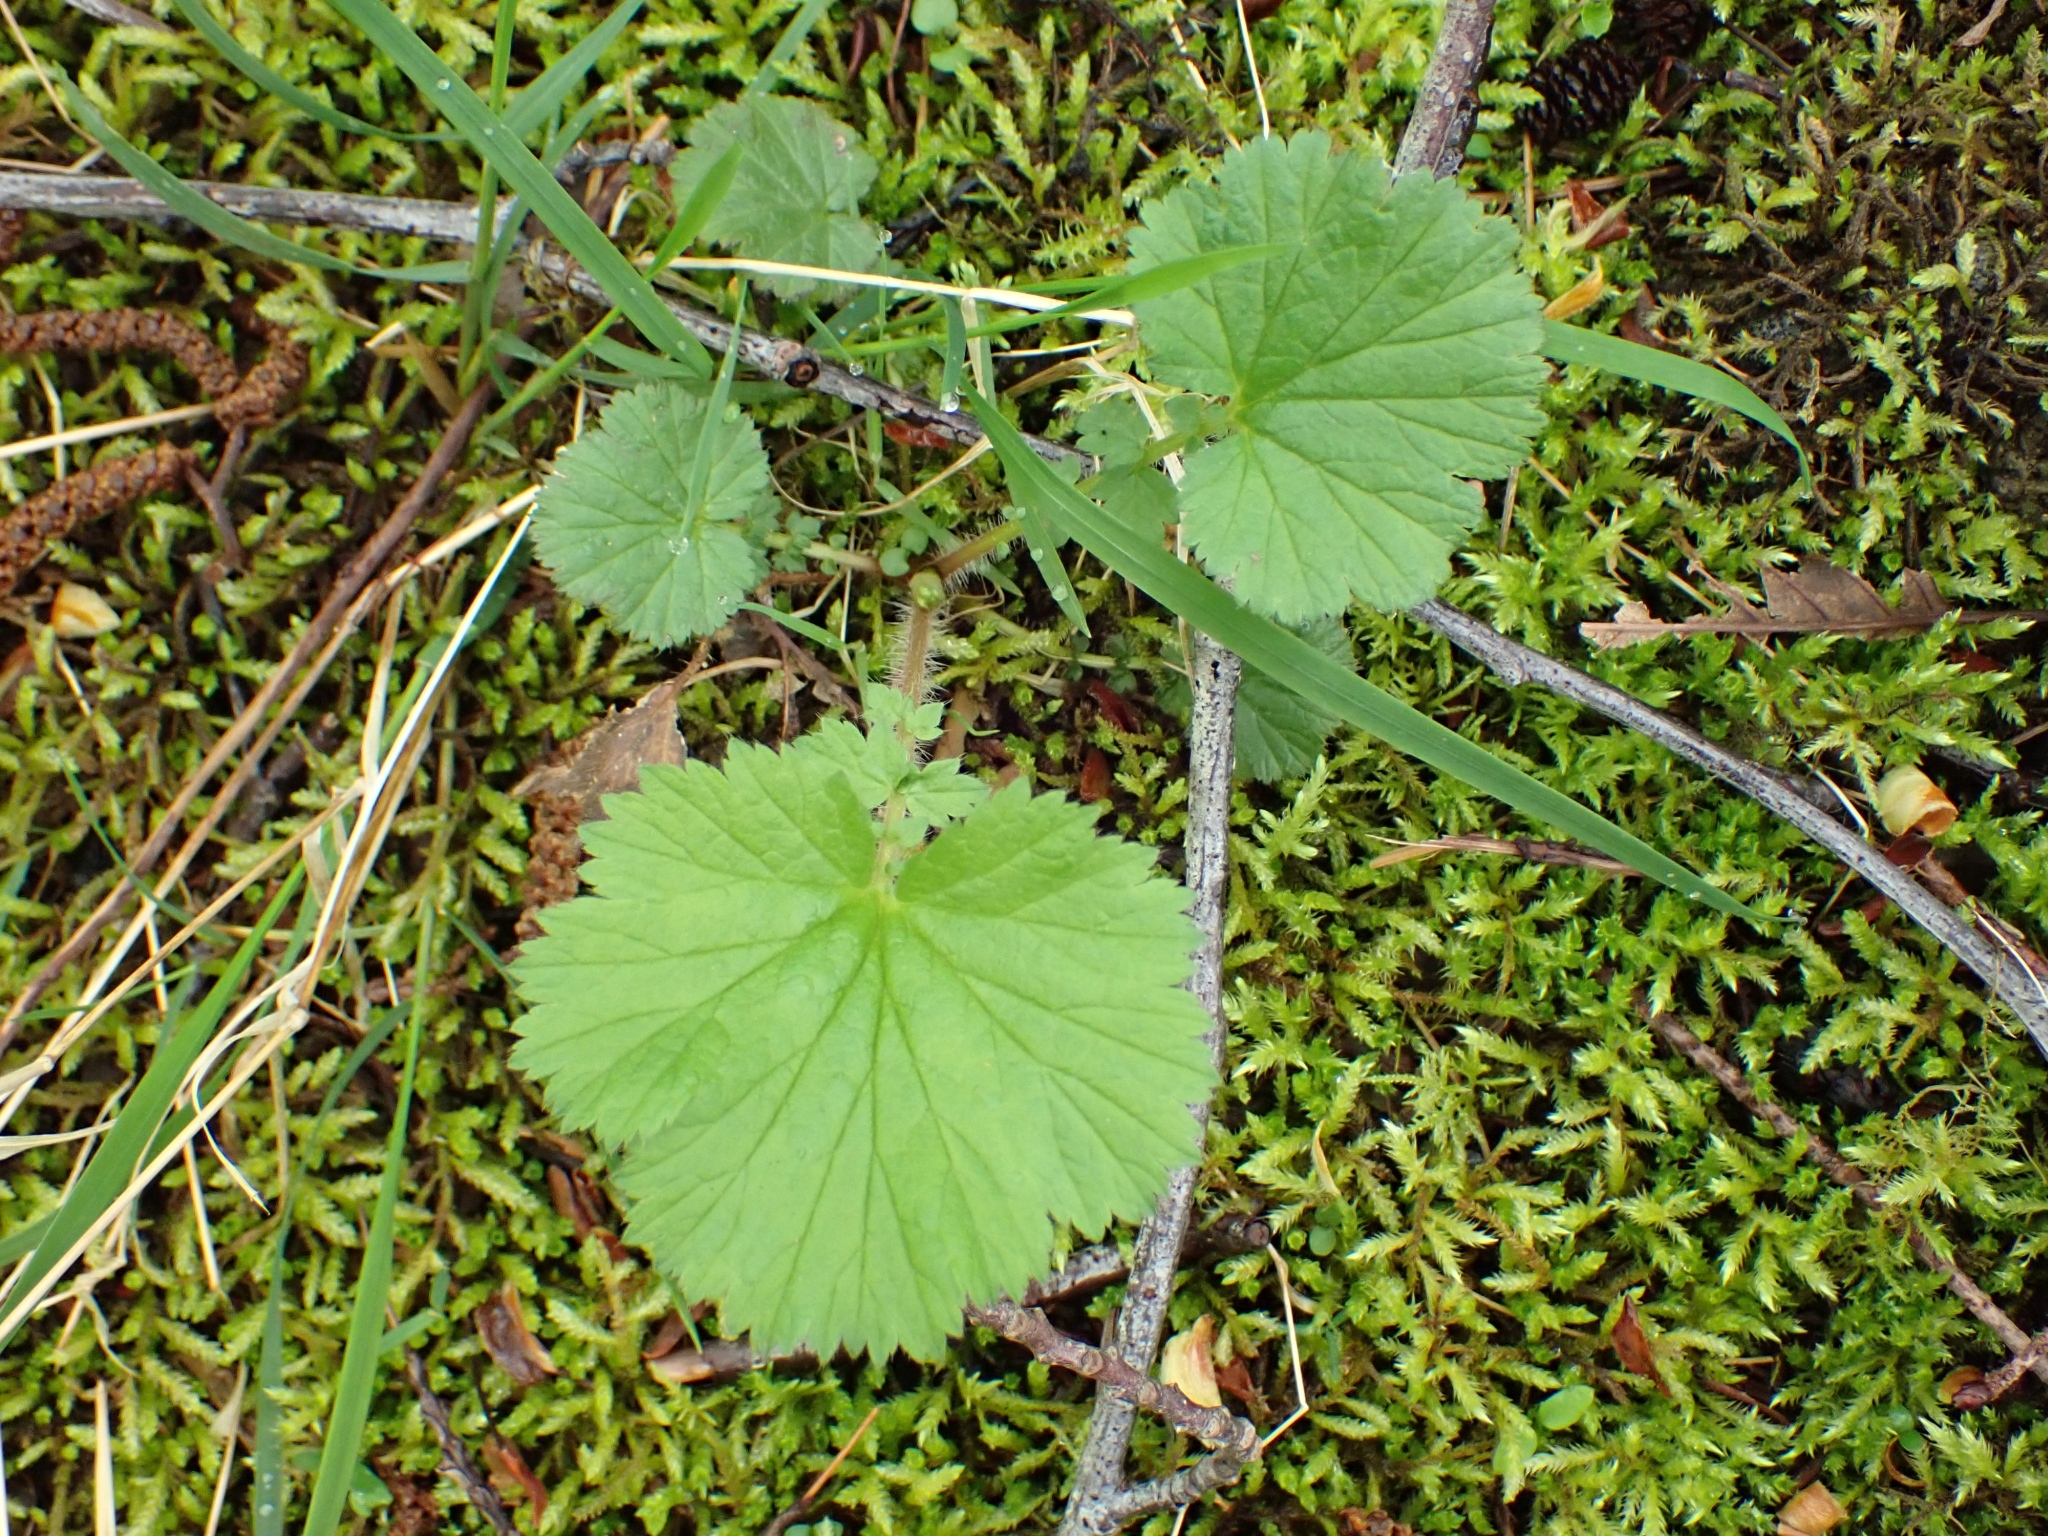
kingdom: Plantae
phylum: Tracheophyta
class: Magnoliopsida
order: Rosales
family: Rosaceae
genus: Geum
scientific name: Geum macrophyllum
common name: Large-leaved avens
